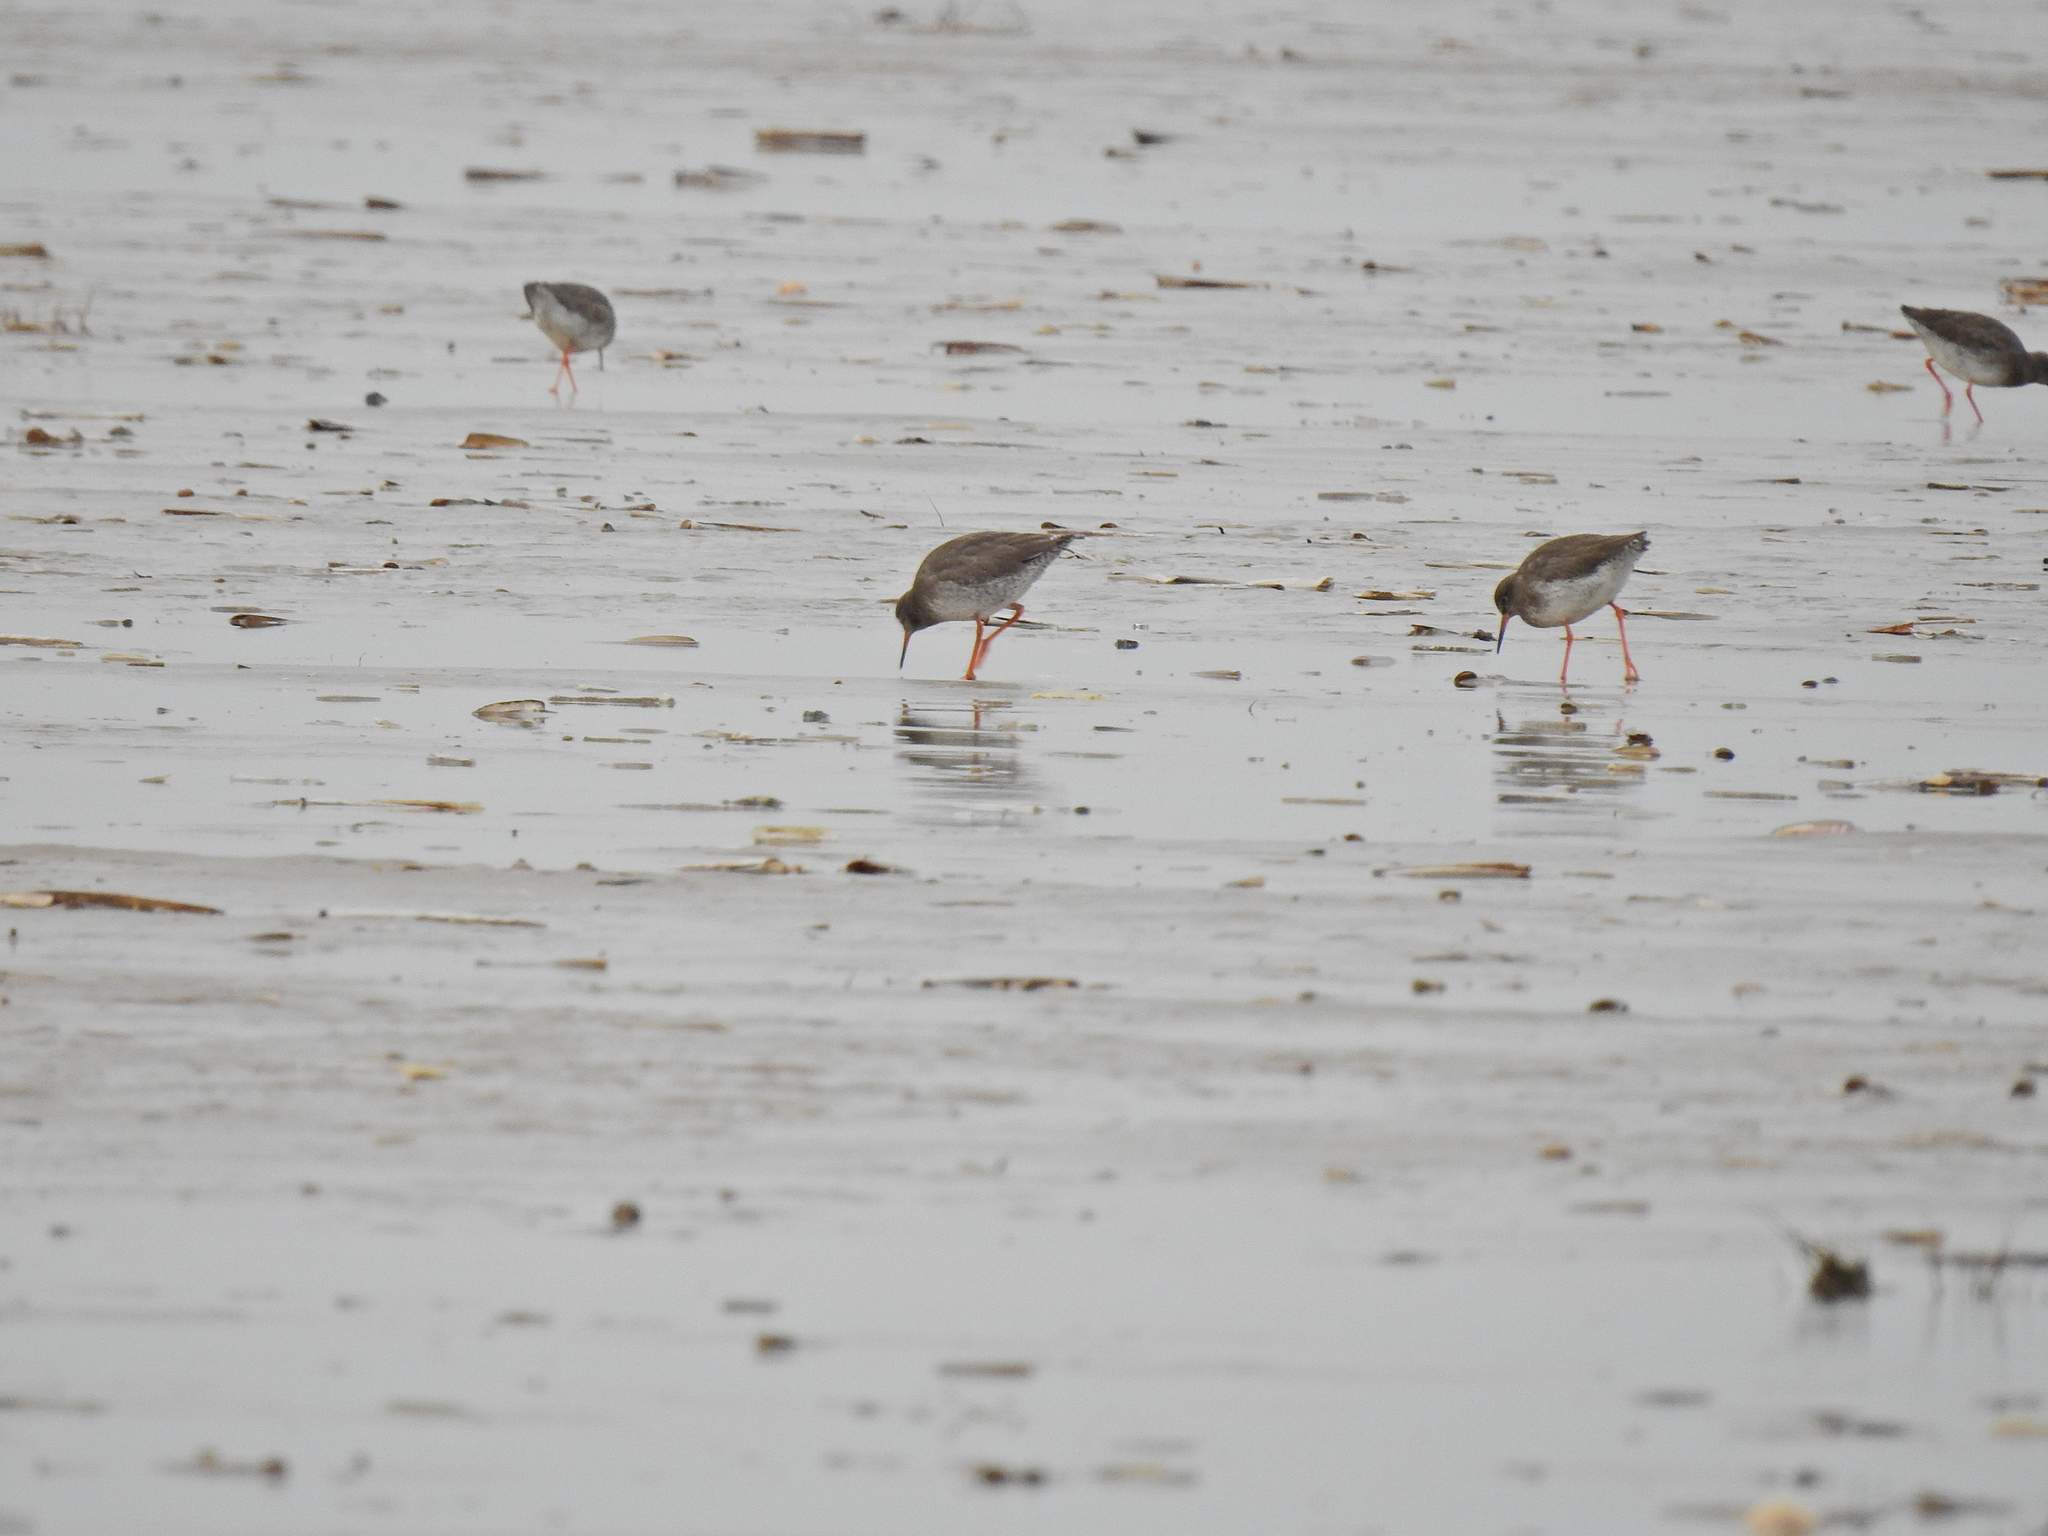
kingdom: Animalia
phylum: Chordata
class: Aves
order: Charadriiformes
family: Scolopacidae
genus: Tringa
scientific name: Tringa totanus
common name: Common redshank
